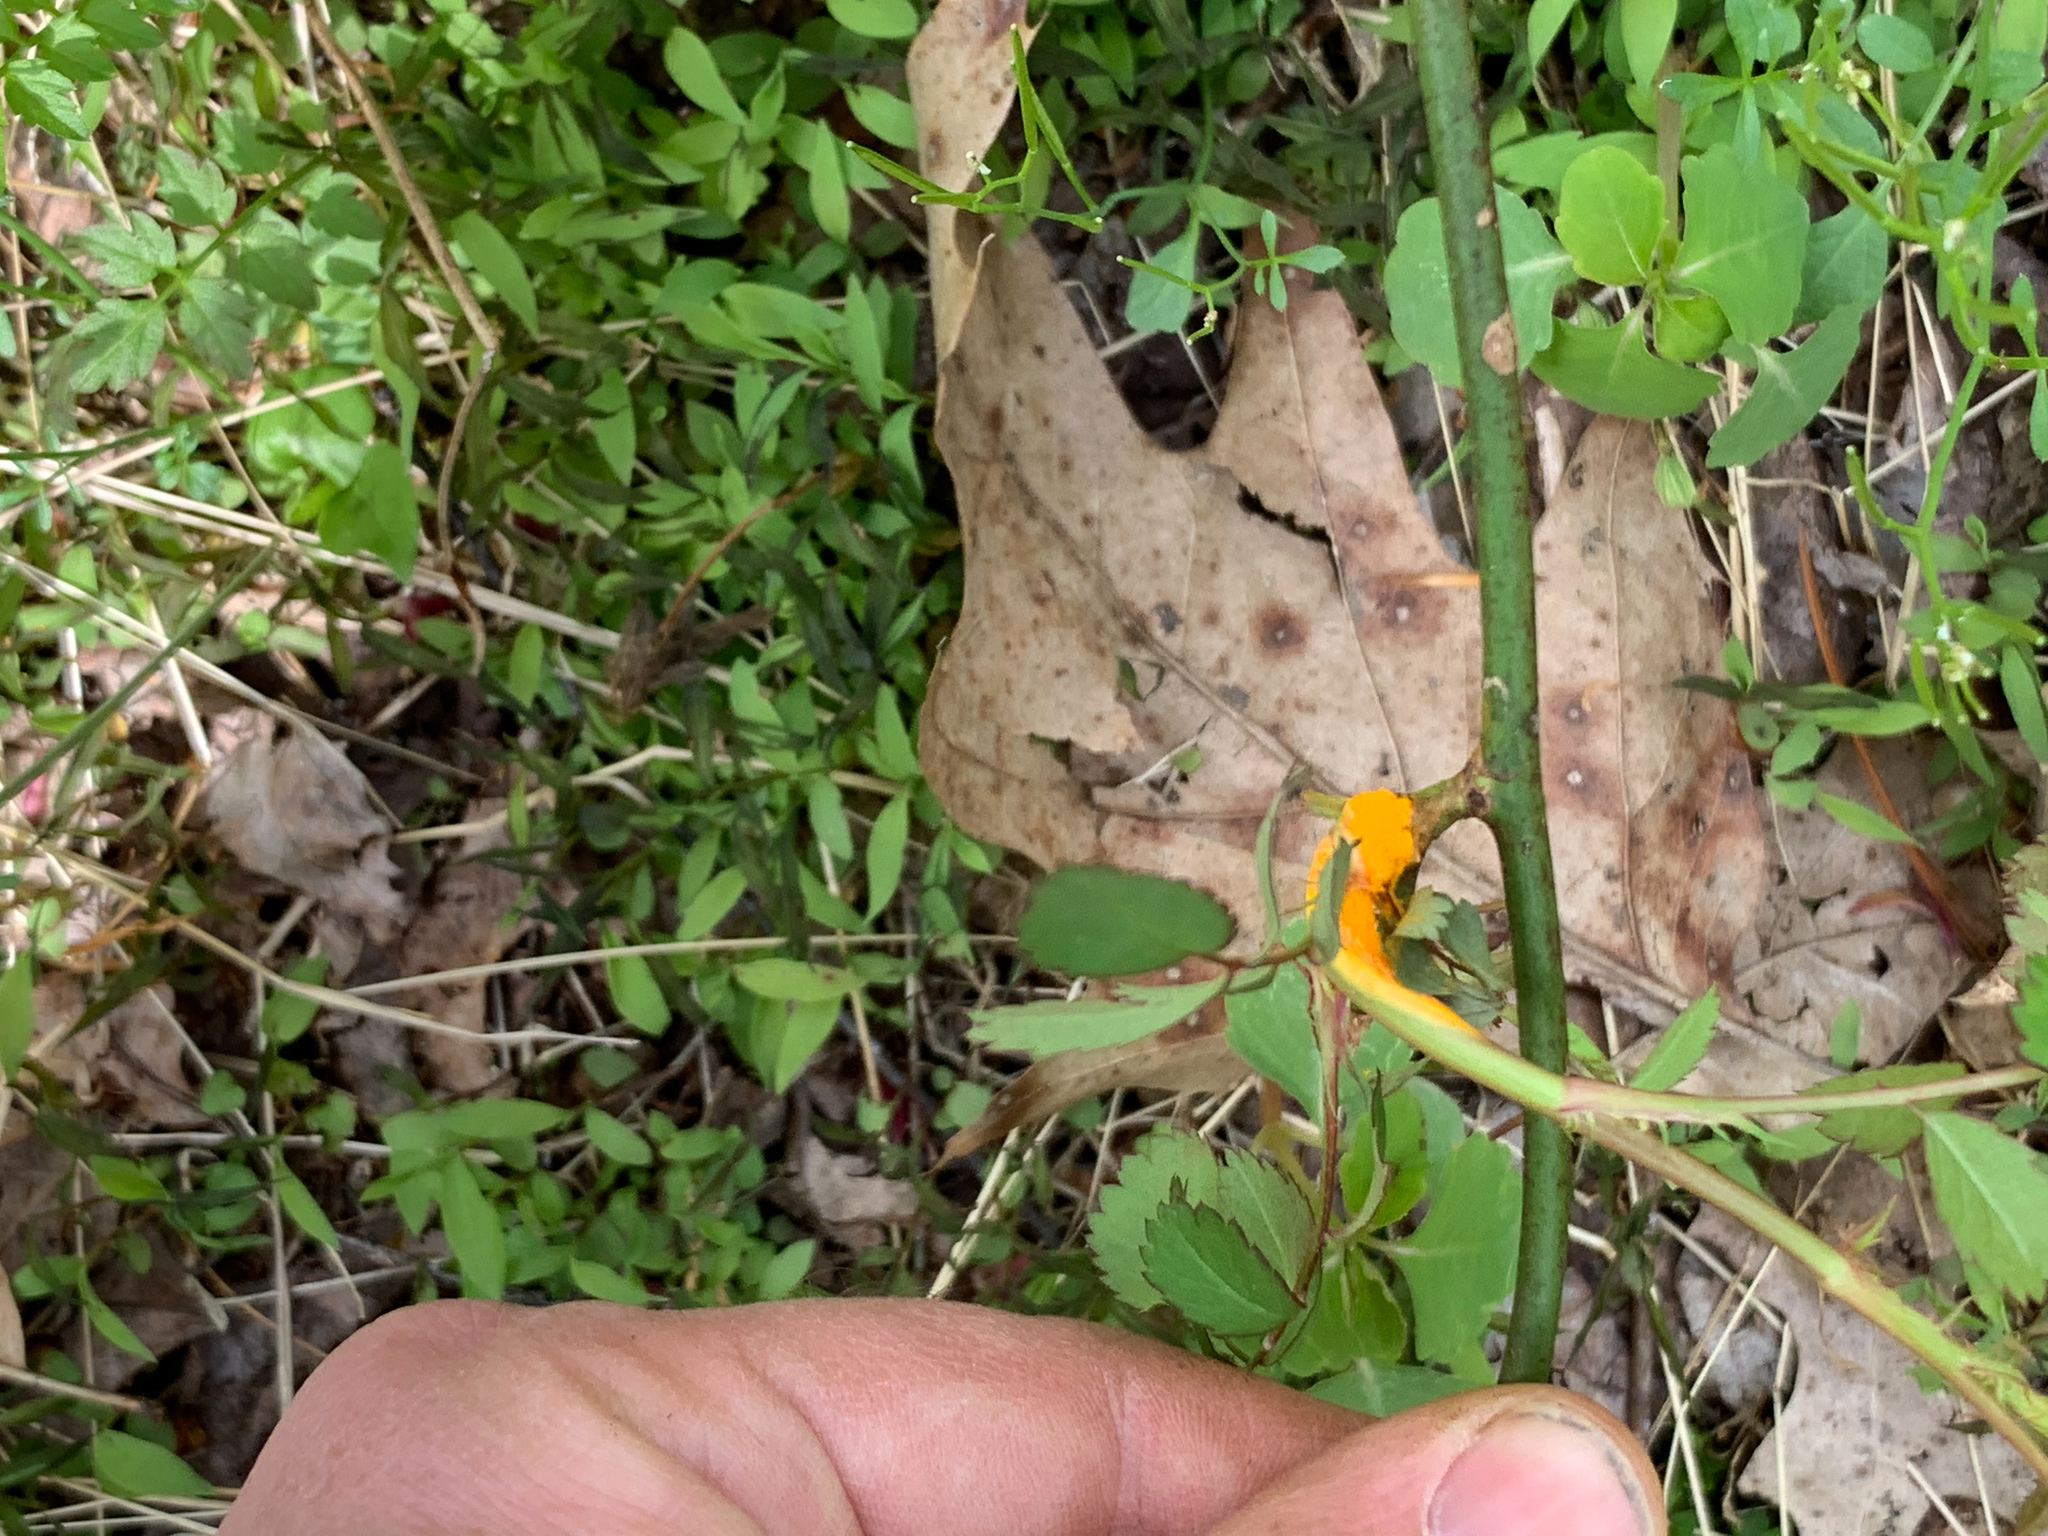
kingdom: Fungi
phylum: Basidiomycota
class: Pucciniomycetes
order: Pucciniales
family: Phragmidiaceae
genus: Phragmidium
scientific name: Phragmidium mucronatum
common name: Rose rust
